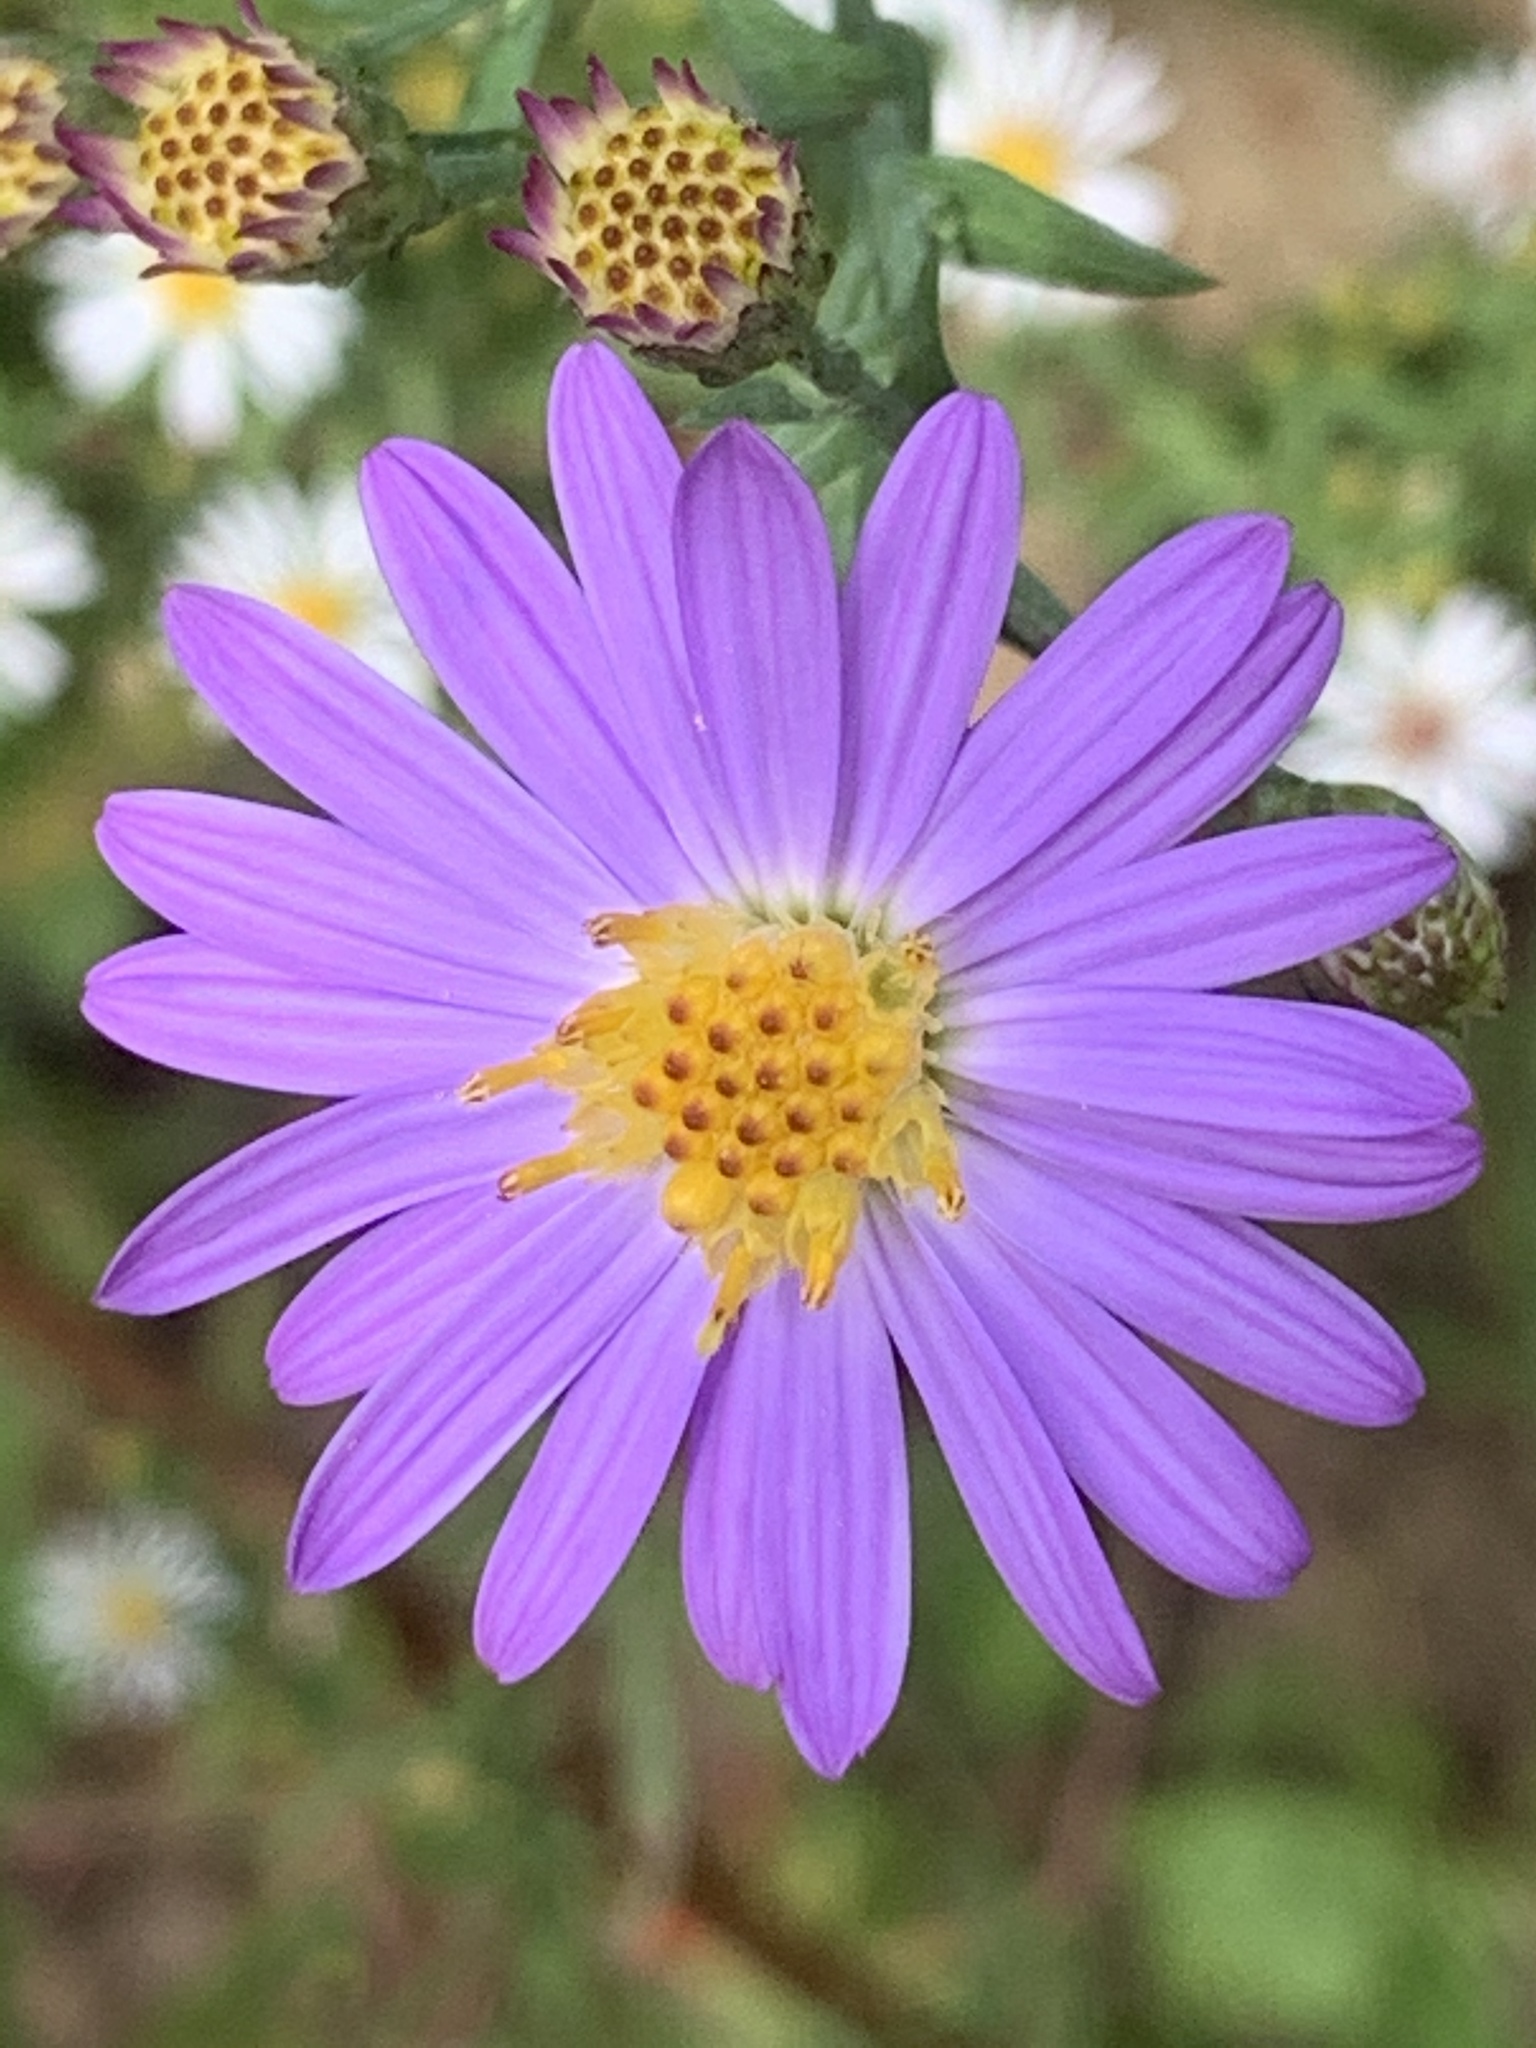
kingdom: Plantae
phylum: Tracheophyta
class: Magnoliopsida
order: Asterales
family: Asteraceae
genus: Symphyotrichum
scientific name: Symphyotrichum patens
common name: Late purple aster
